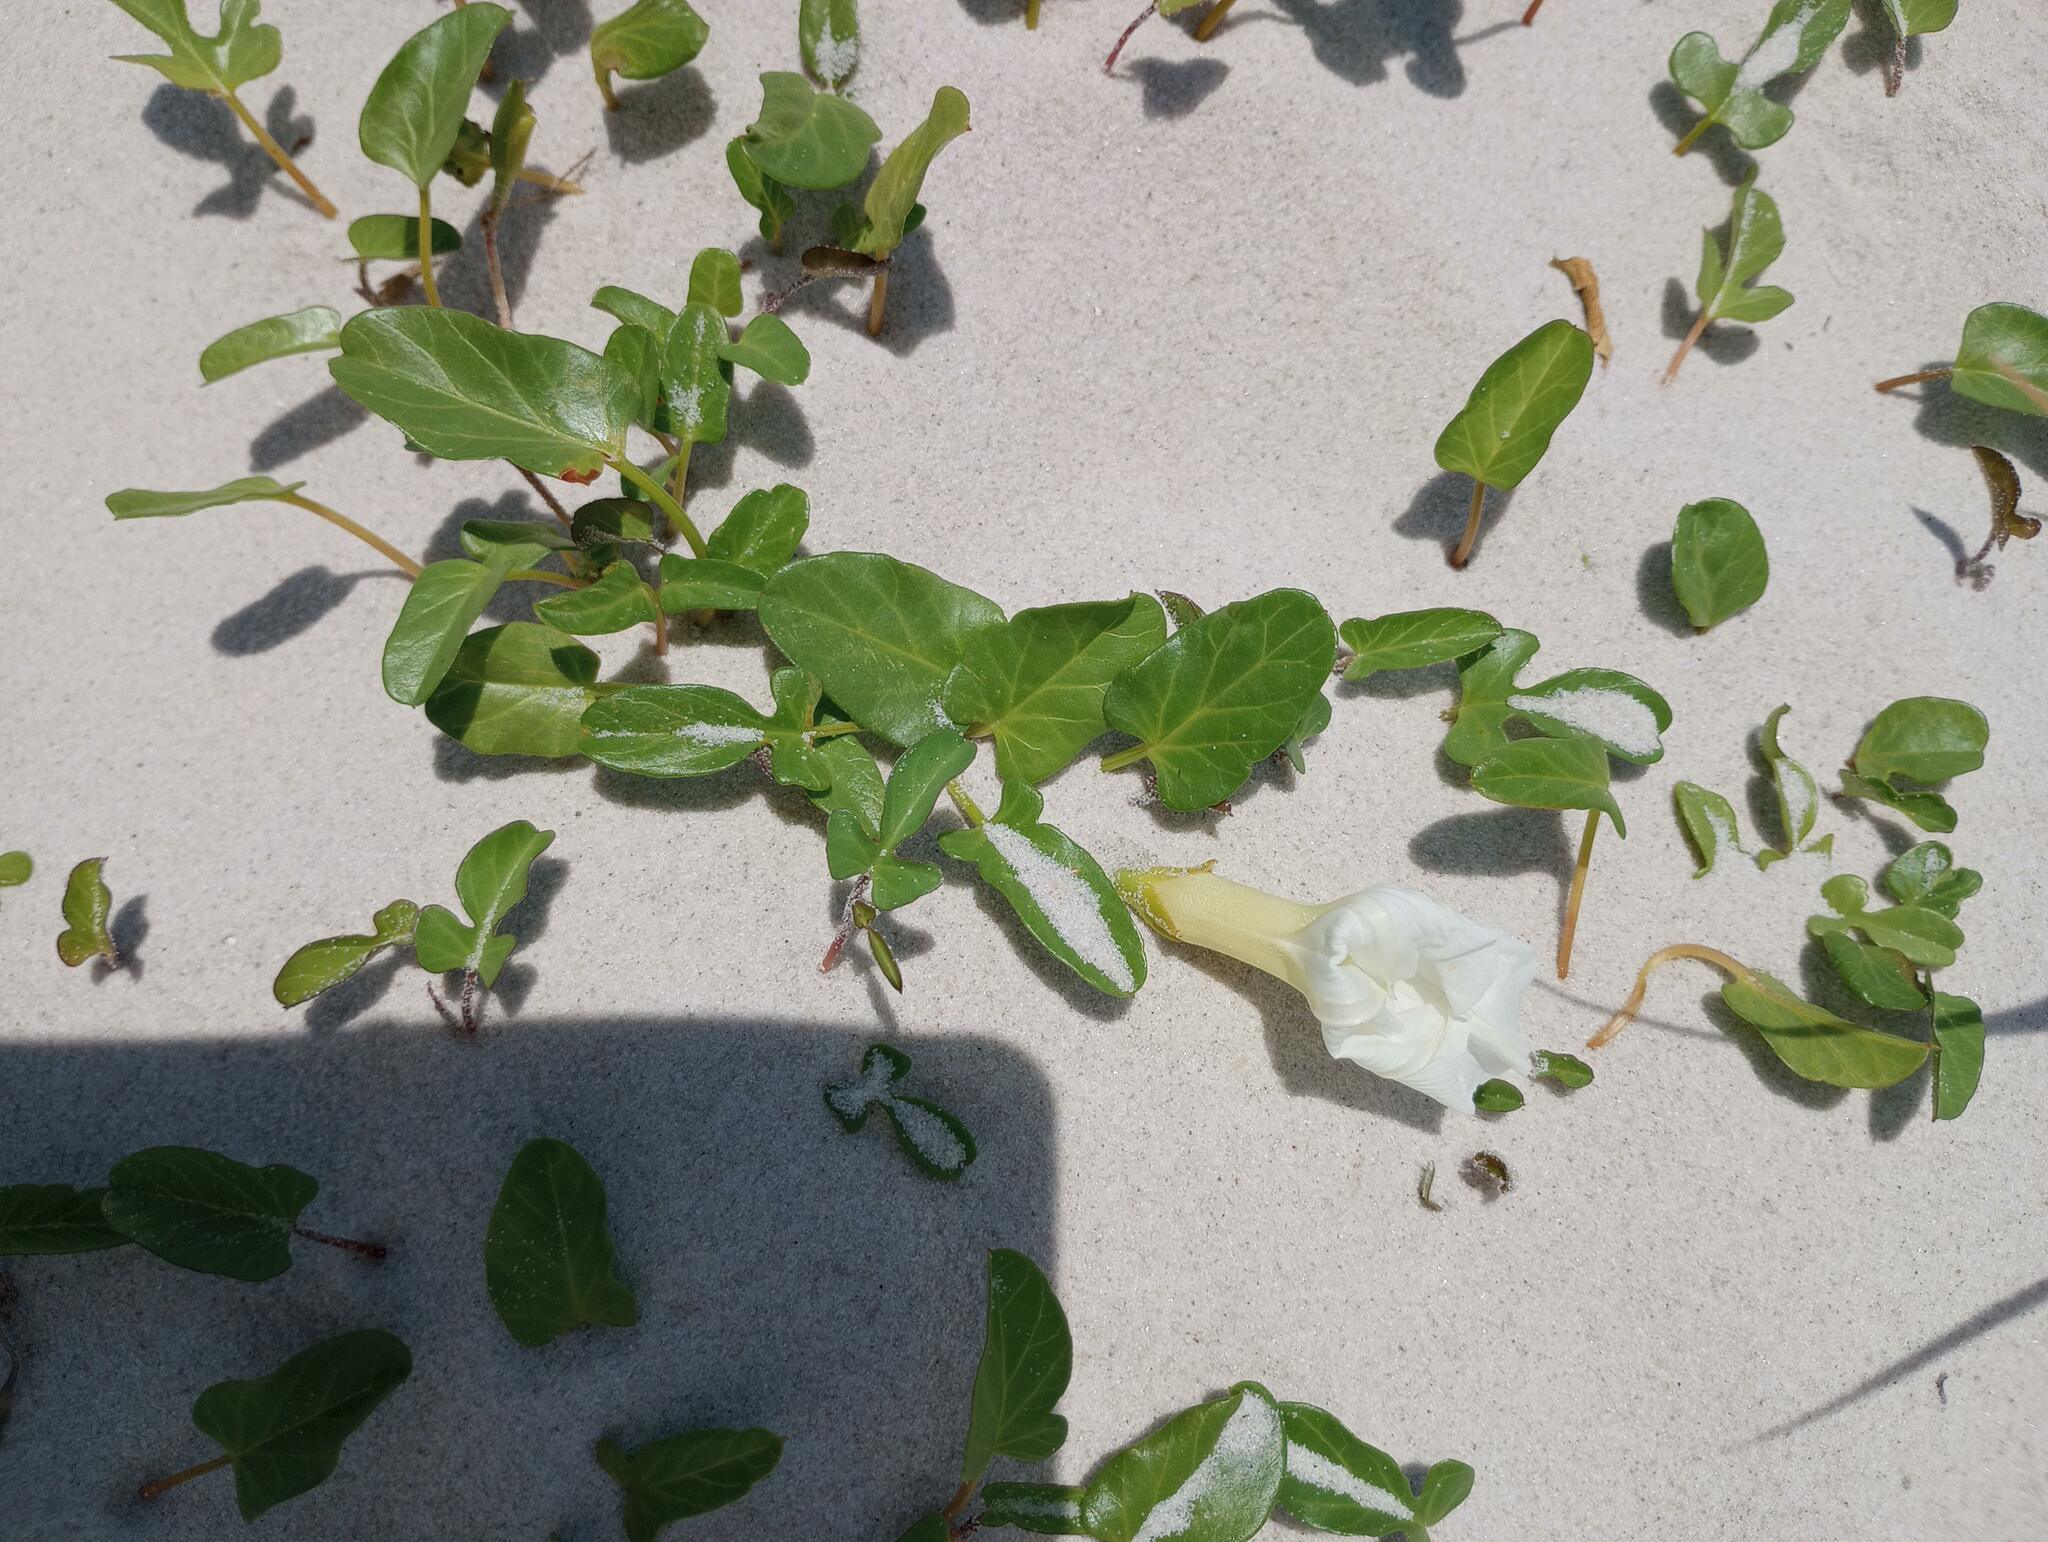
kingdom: Plantae
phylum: Tracheophyta
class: Magnoliopsida
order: Solanales
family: Convolvulaceae
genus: Ipomoea
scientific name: Ipomoea imperati
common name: Fiddle-leaf morning-glory
